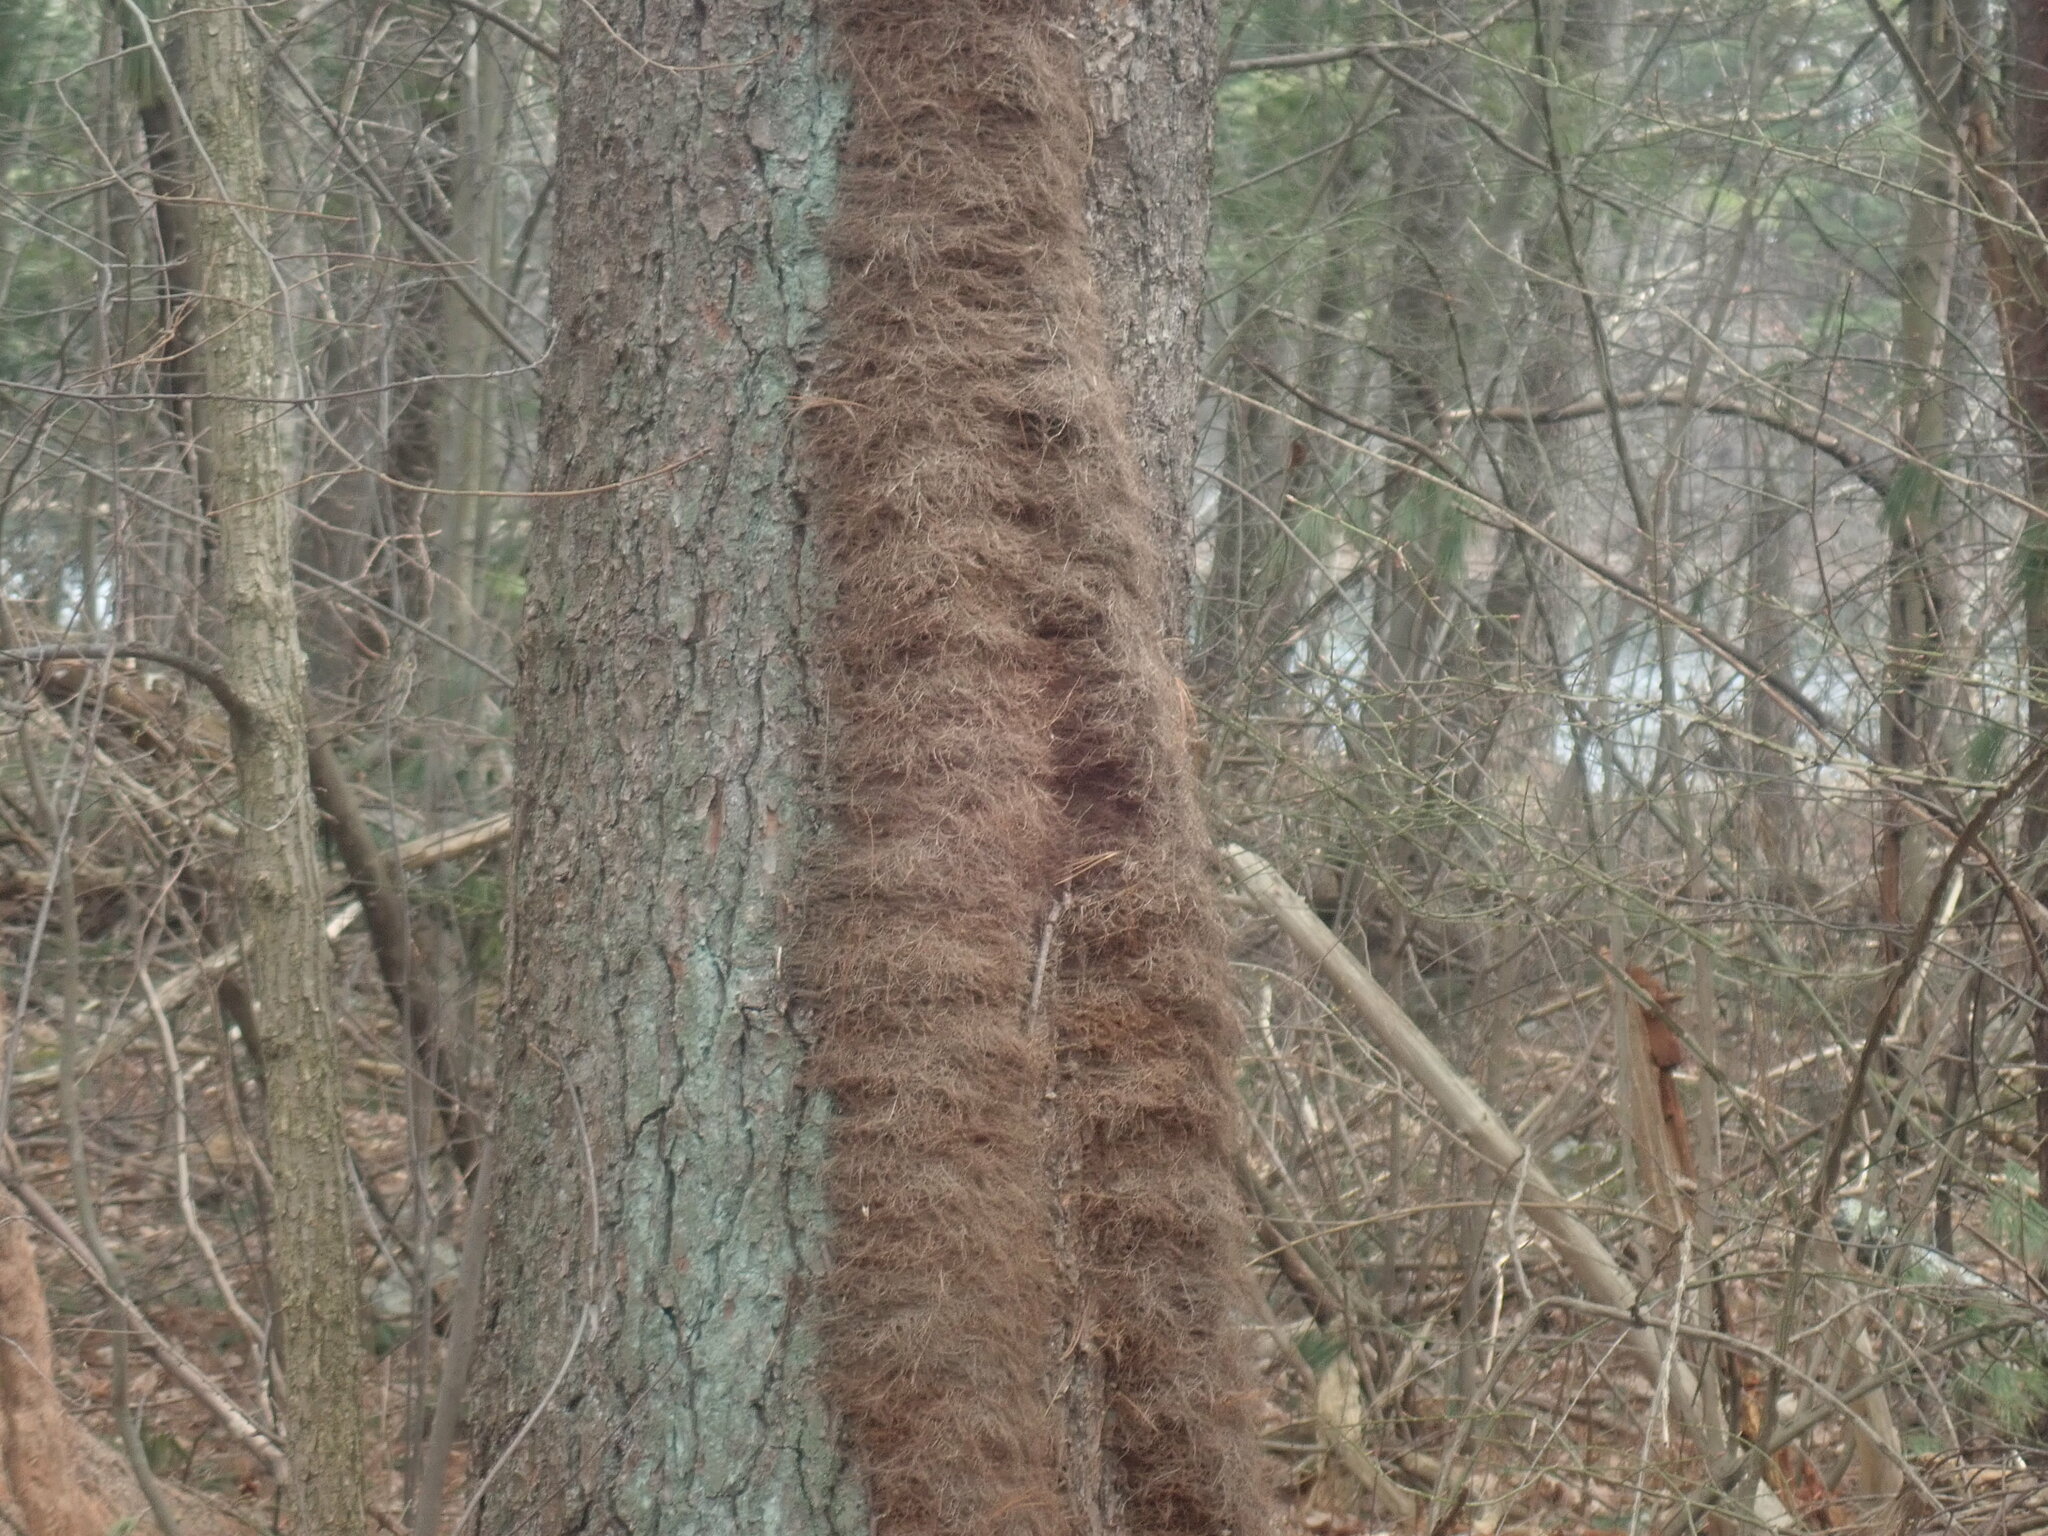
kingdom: Plantae
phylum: Tracheophyta
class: Magnoliopsida
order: Sapindales
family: Anacardiaceae
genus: Toxicodendron
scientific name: Toxicodendron radicans
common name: Poison ivy
